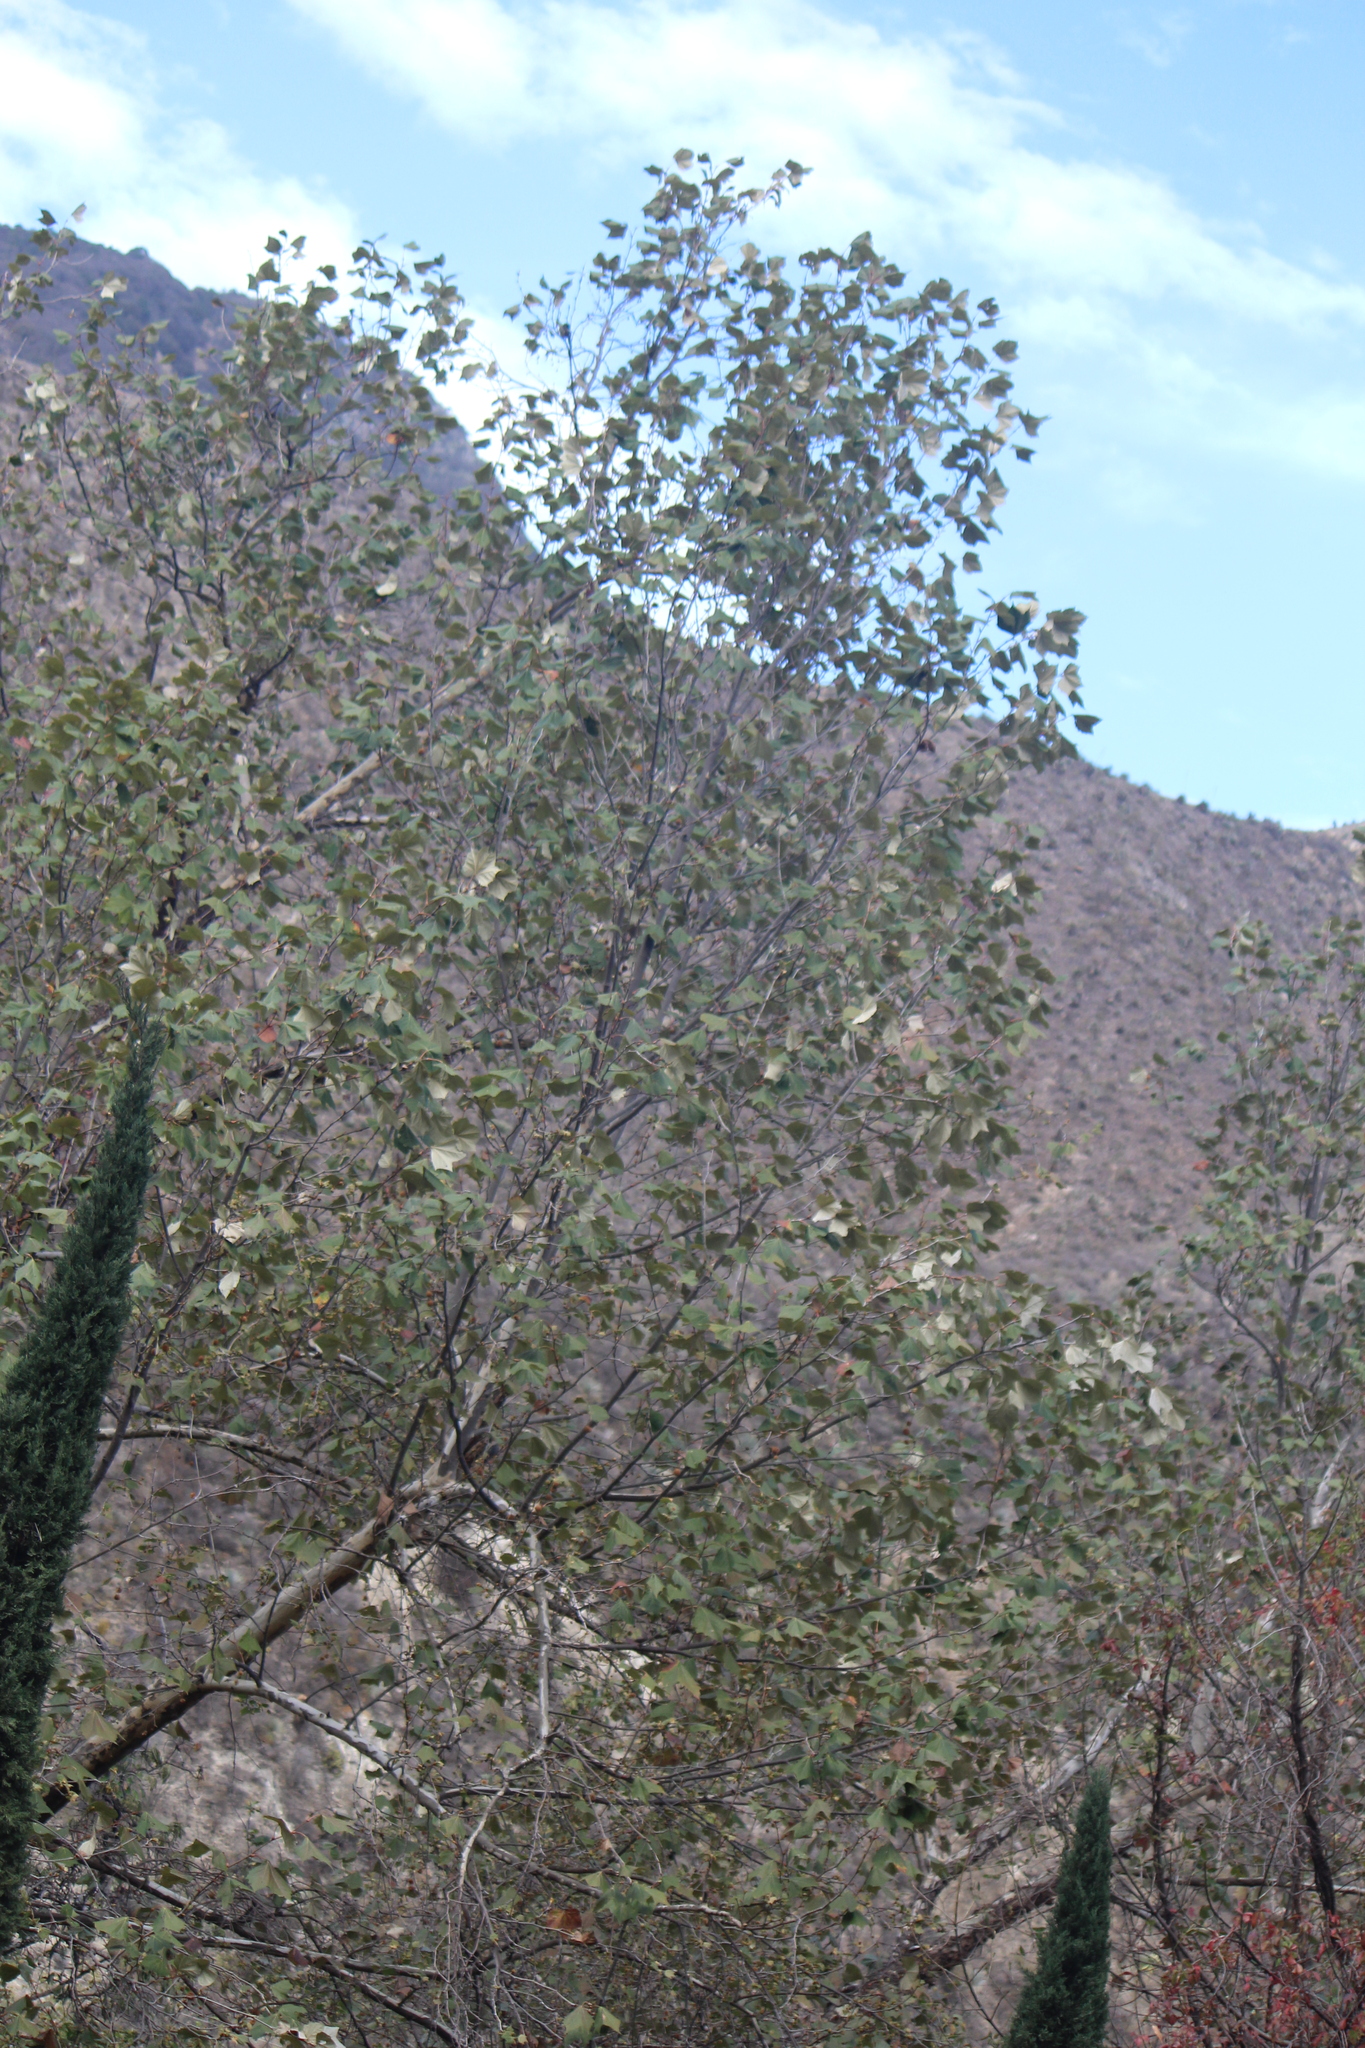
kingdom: Plantae
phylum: Tracheophyta
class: Magnoliopsida
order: Proteales
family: Platanaceae
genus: Platanus
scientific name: Platanus mexicana
